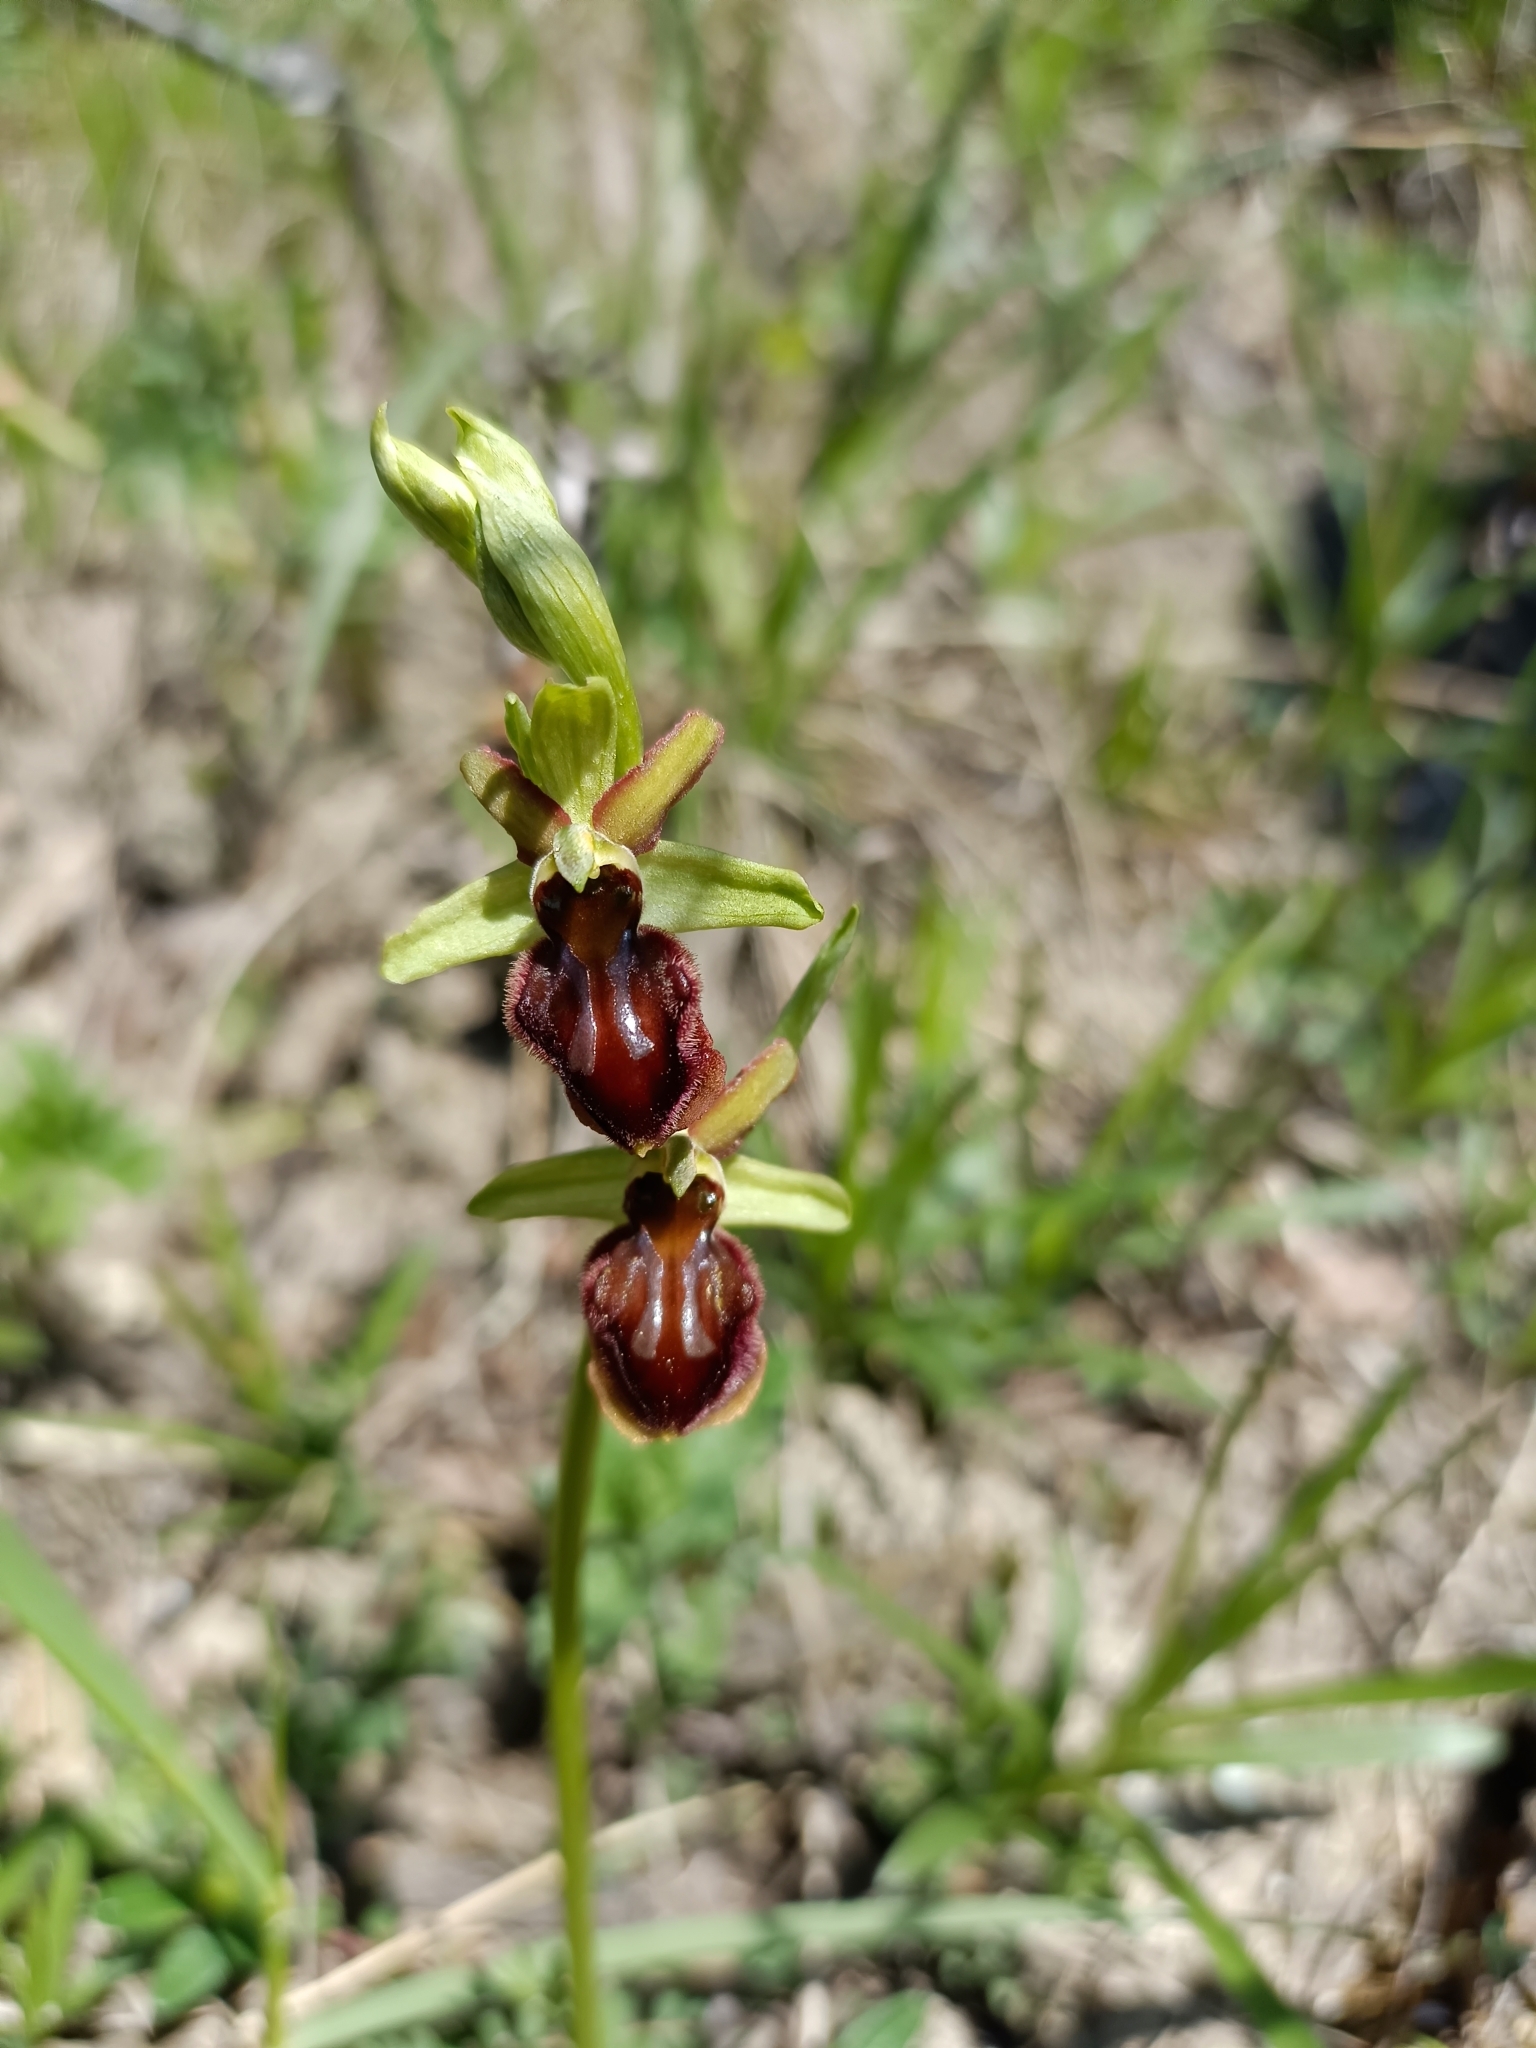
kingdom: Plantae
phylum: Tracheophyta
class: Liliopsida
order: Asparagales
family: Orchidaceae
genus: Ophrys
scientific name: Ophrys sphegodes
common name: Early spider-orchid
